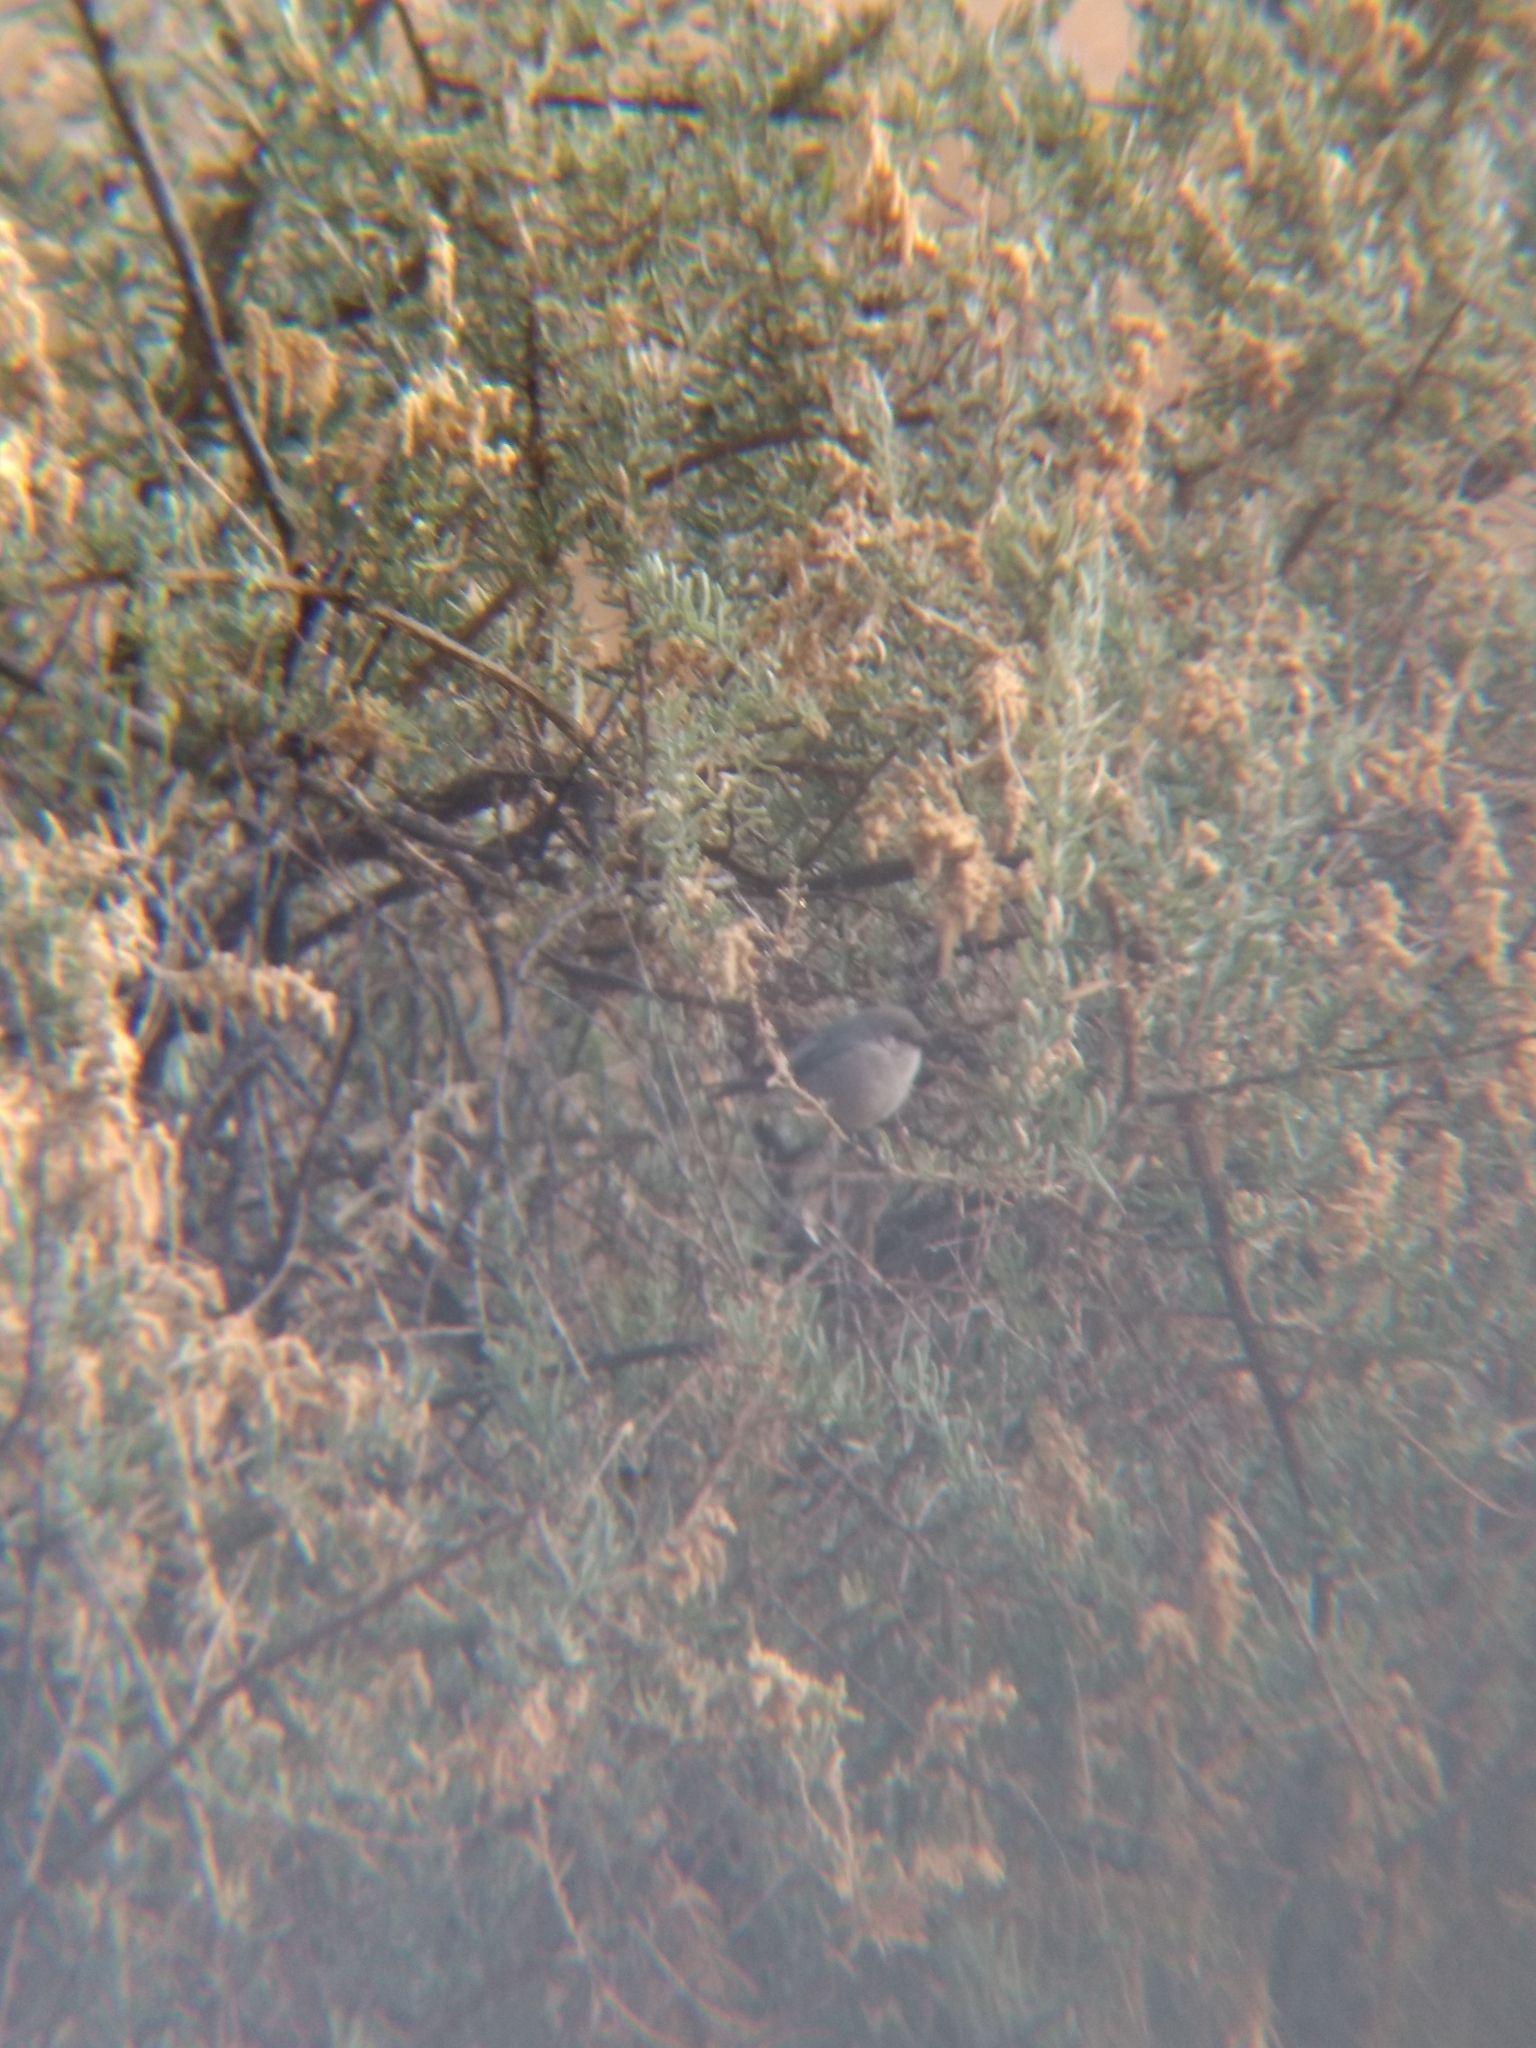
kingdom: Animalia
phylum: Chordata
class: Aves
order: Passeriformes
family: Aegithalidae
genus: Psaltriparus
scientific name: Psaltriparus minimus
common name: American bushtit
